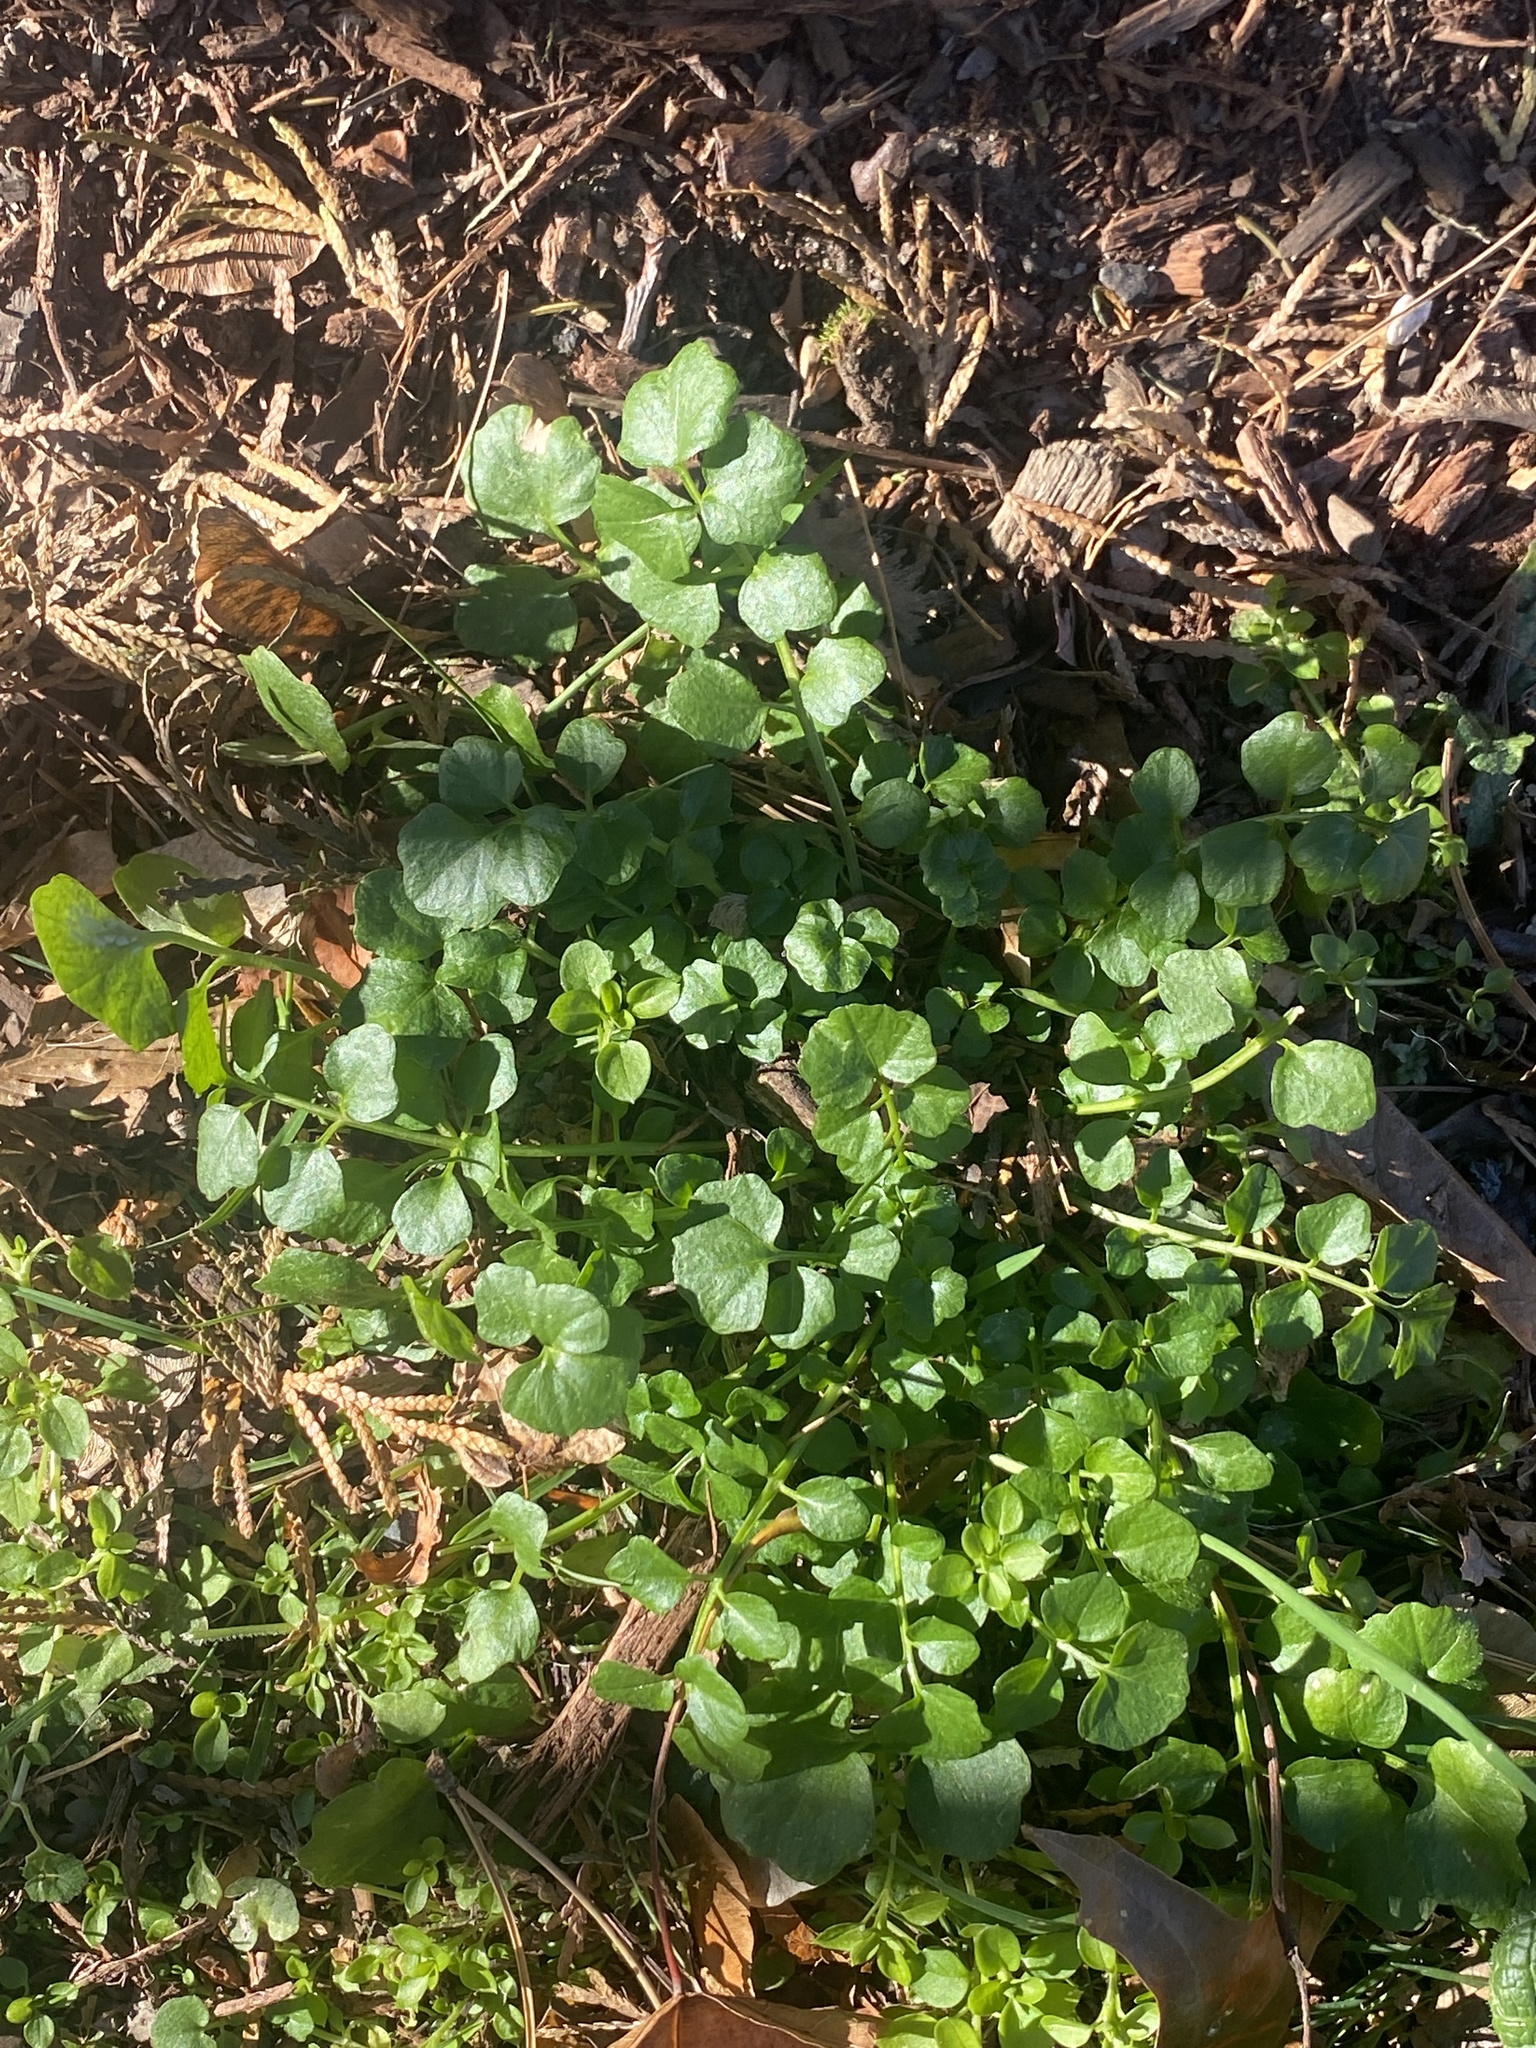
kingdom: Plantae
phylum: Tracheophyta
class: Magnoliopsida
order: Brassicales
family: Brassicaceae
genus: Cardamine
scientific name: Cardamine hirsuta
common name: Hairy bittercress
